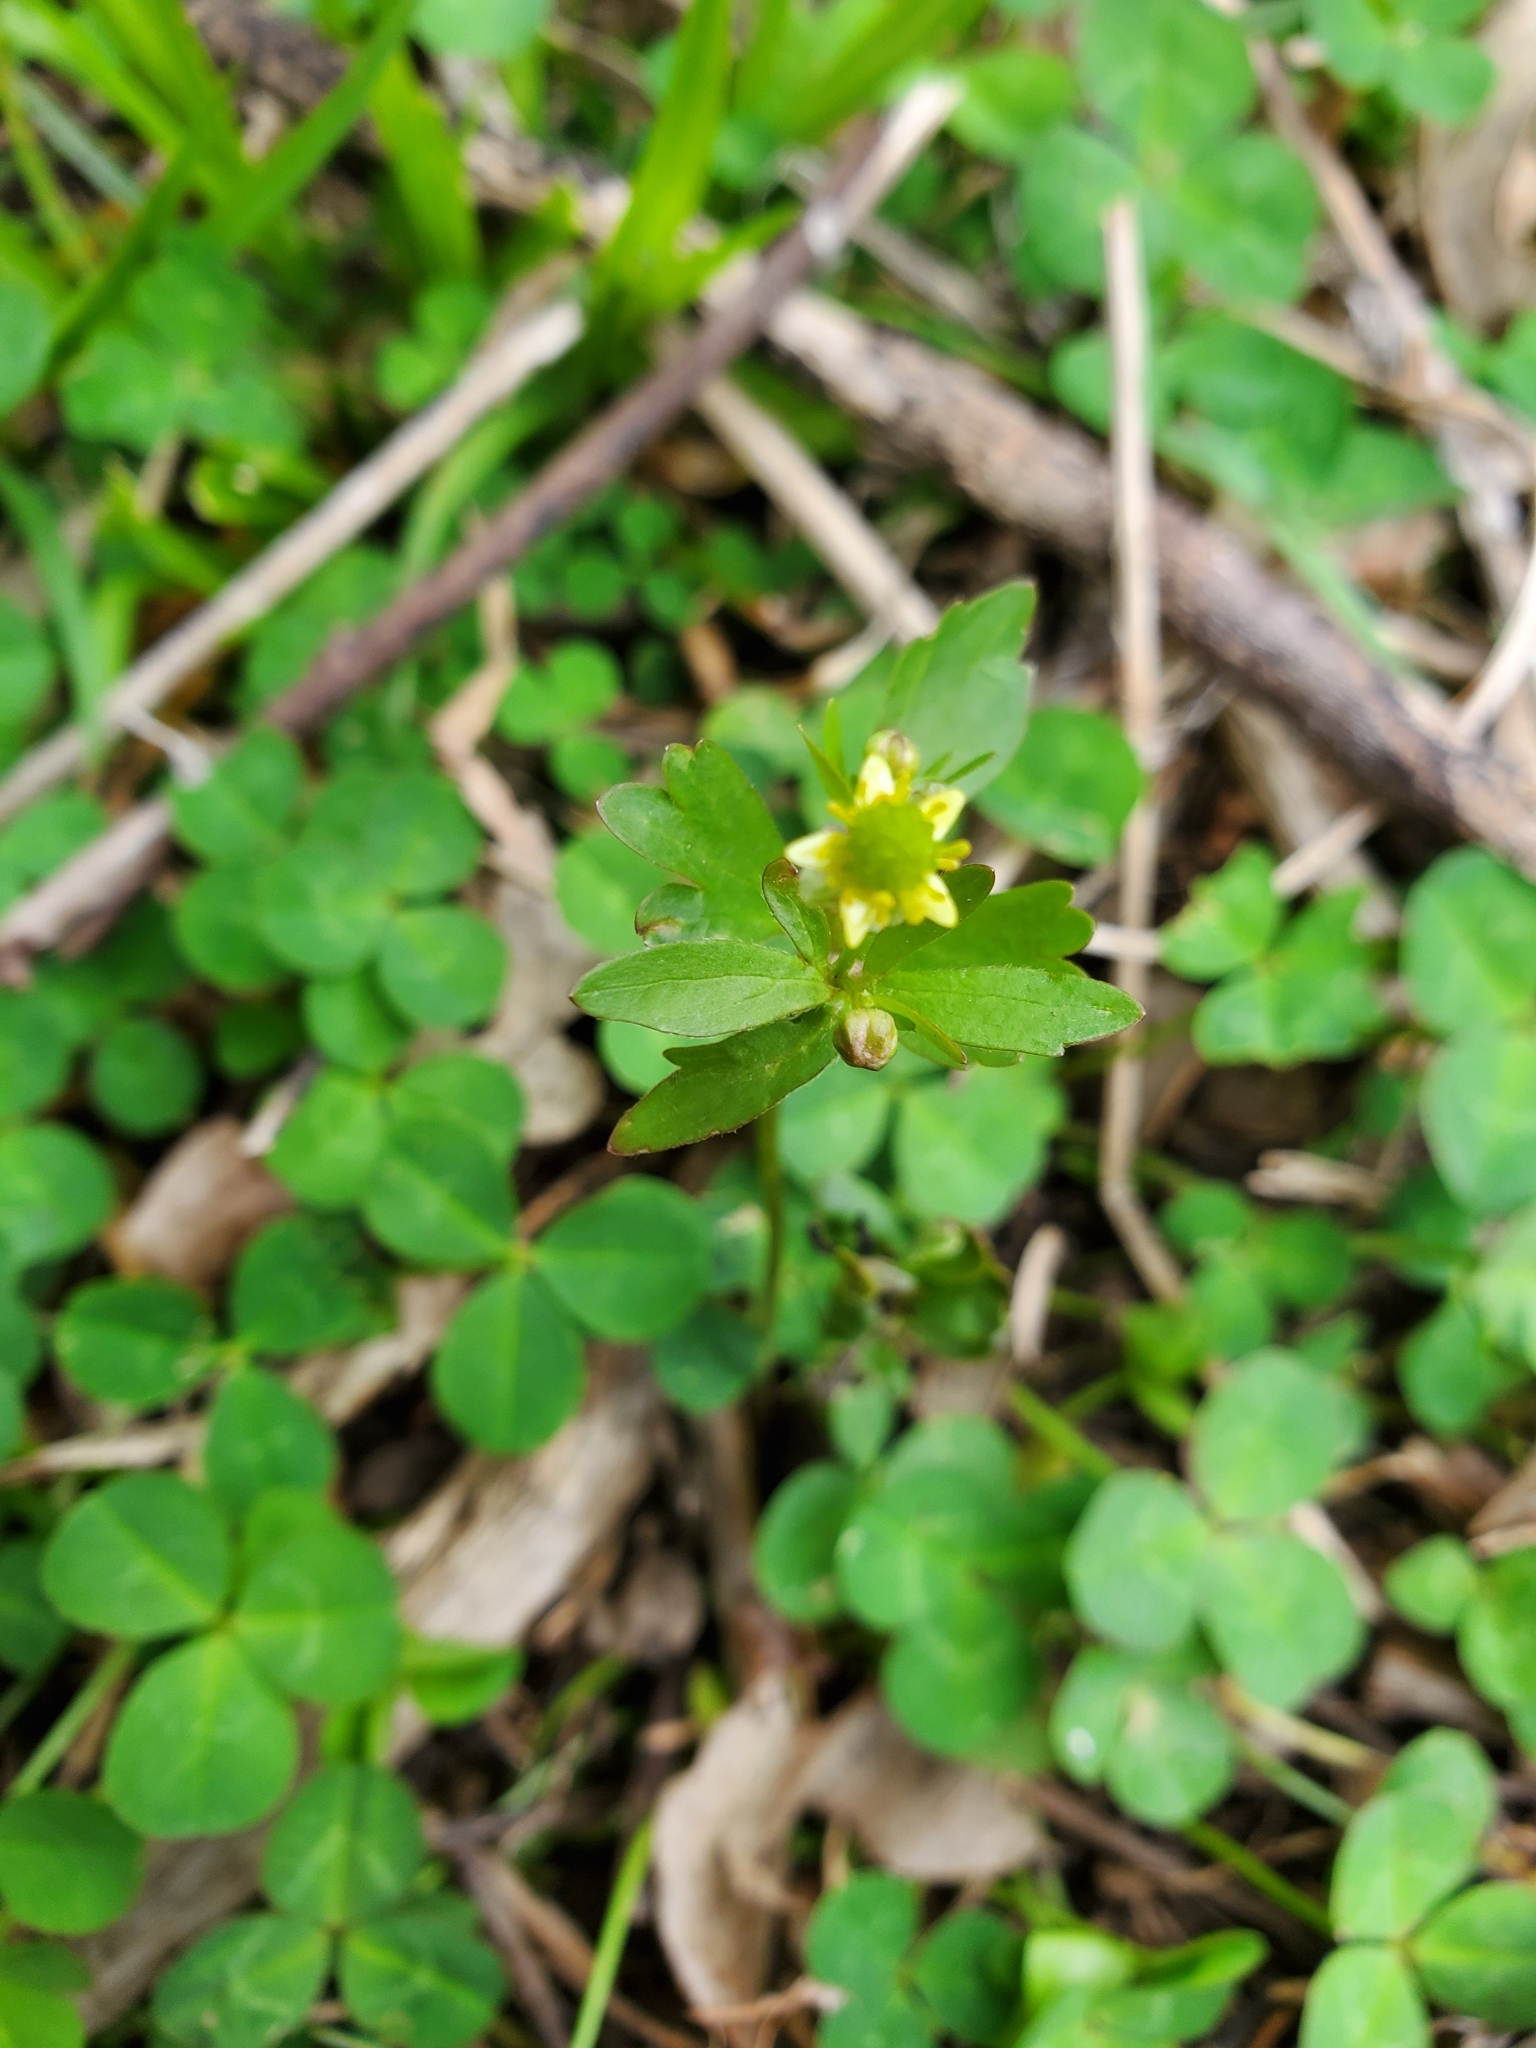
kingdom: Plantae
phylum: Tracheophyta
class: Magnoliopsida
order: Ranunculales
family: Ranunculaceae
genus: Ranunculus
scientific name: Ranunculus abortivus
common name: Early wood buttercup
